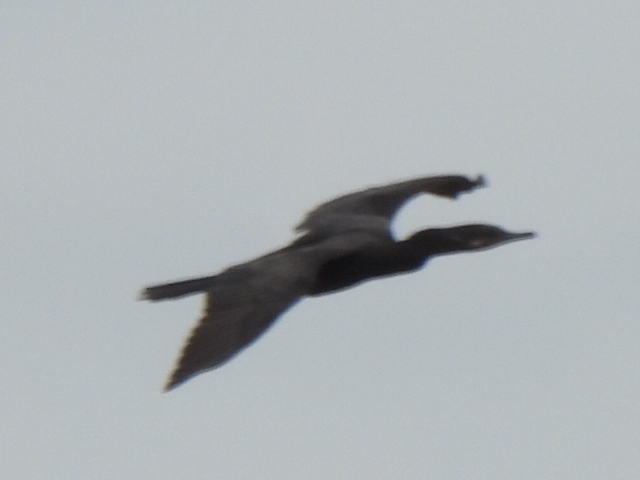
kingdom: Animalia
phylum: Chordata
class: Aves
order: Suliformes
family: Phalacrocoracidae
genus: Phalacrocorax
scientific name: Phalacrocorax brasilianus
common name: Neotropic cormorant
